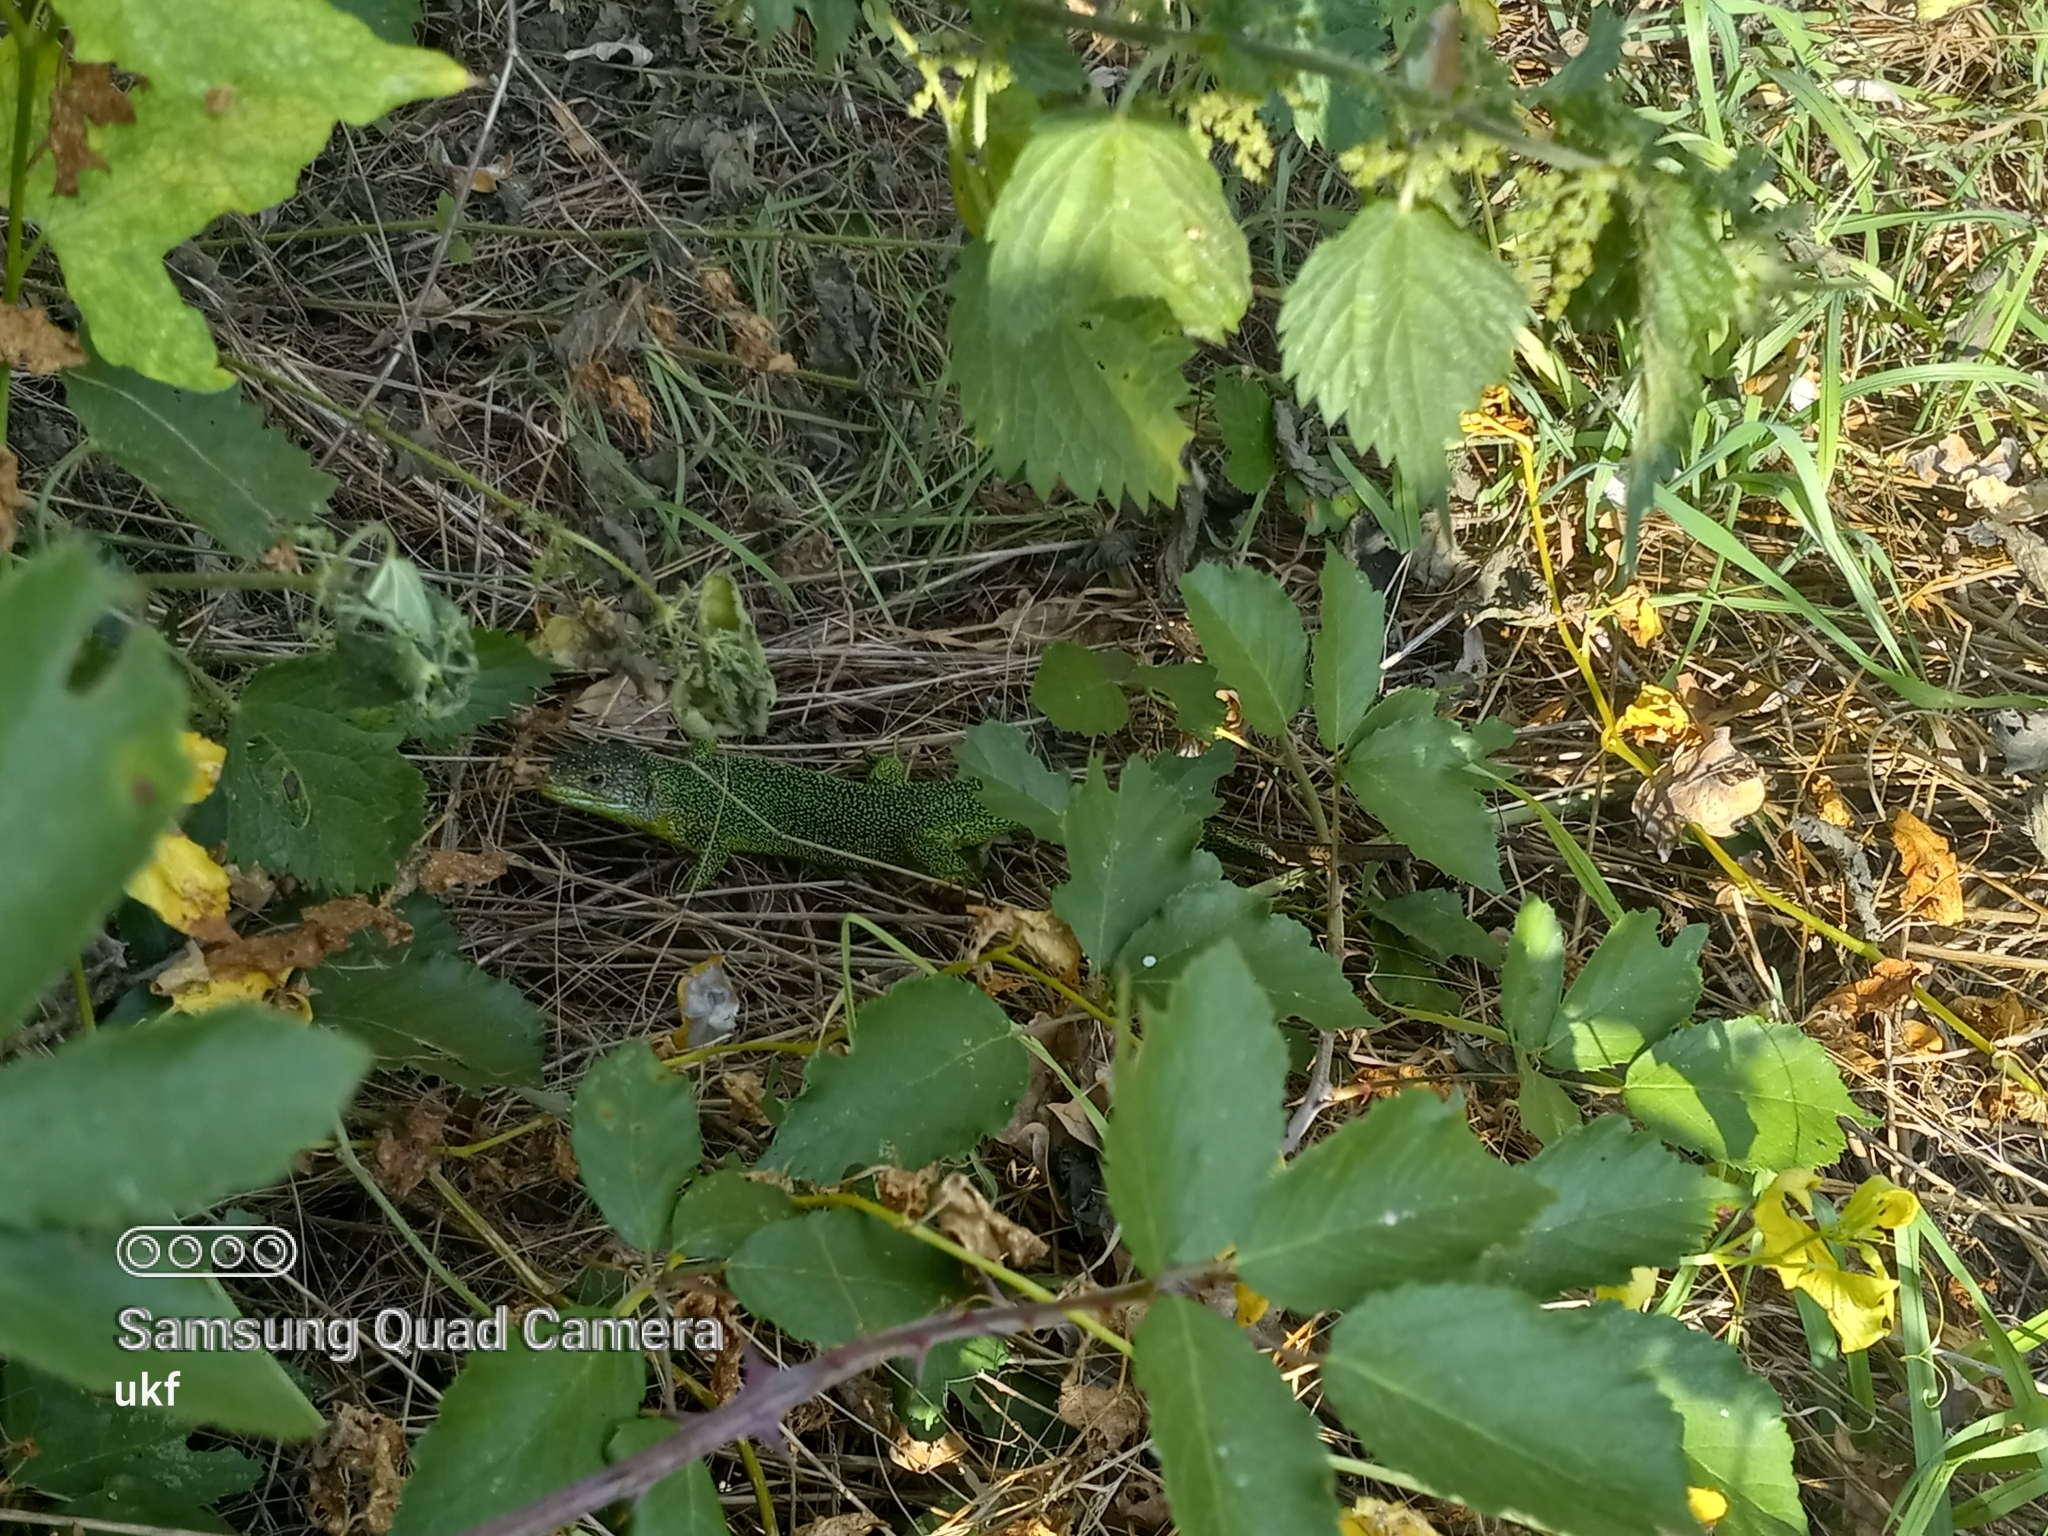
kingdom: Animalia
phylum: Chordata
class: Squamata
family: Lacertidae
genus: Lacerta
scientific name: Lacerta bilineata
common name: Western green lizard
